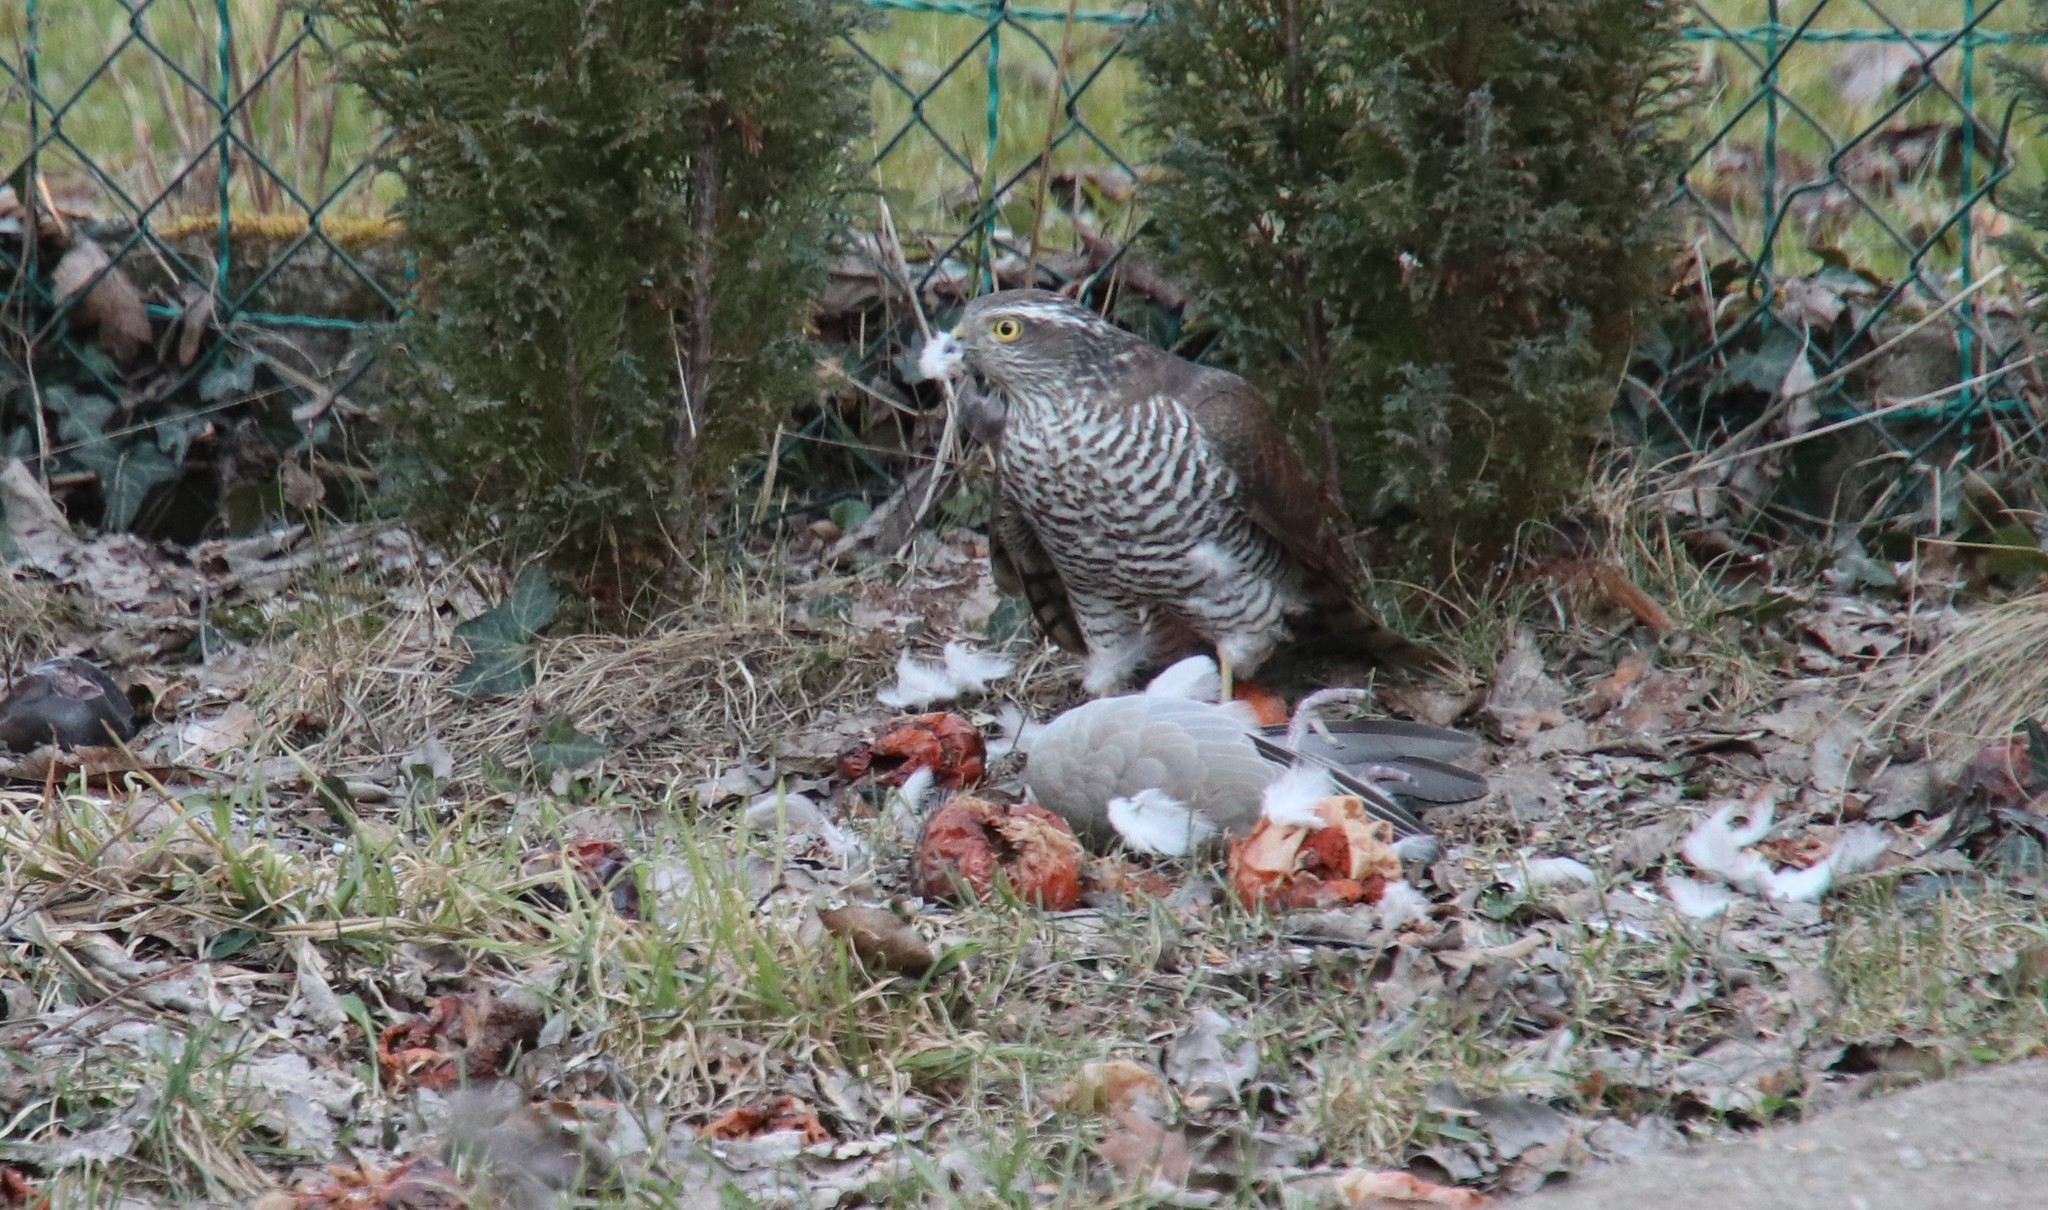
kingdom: Animalia
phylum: Chordata
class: Aves
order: Accipitriformes
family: Accipitridae
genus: Accipiter
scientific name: Accipiter nisus
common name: Eurasian sparrowhawk
